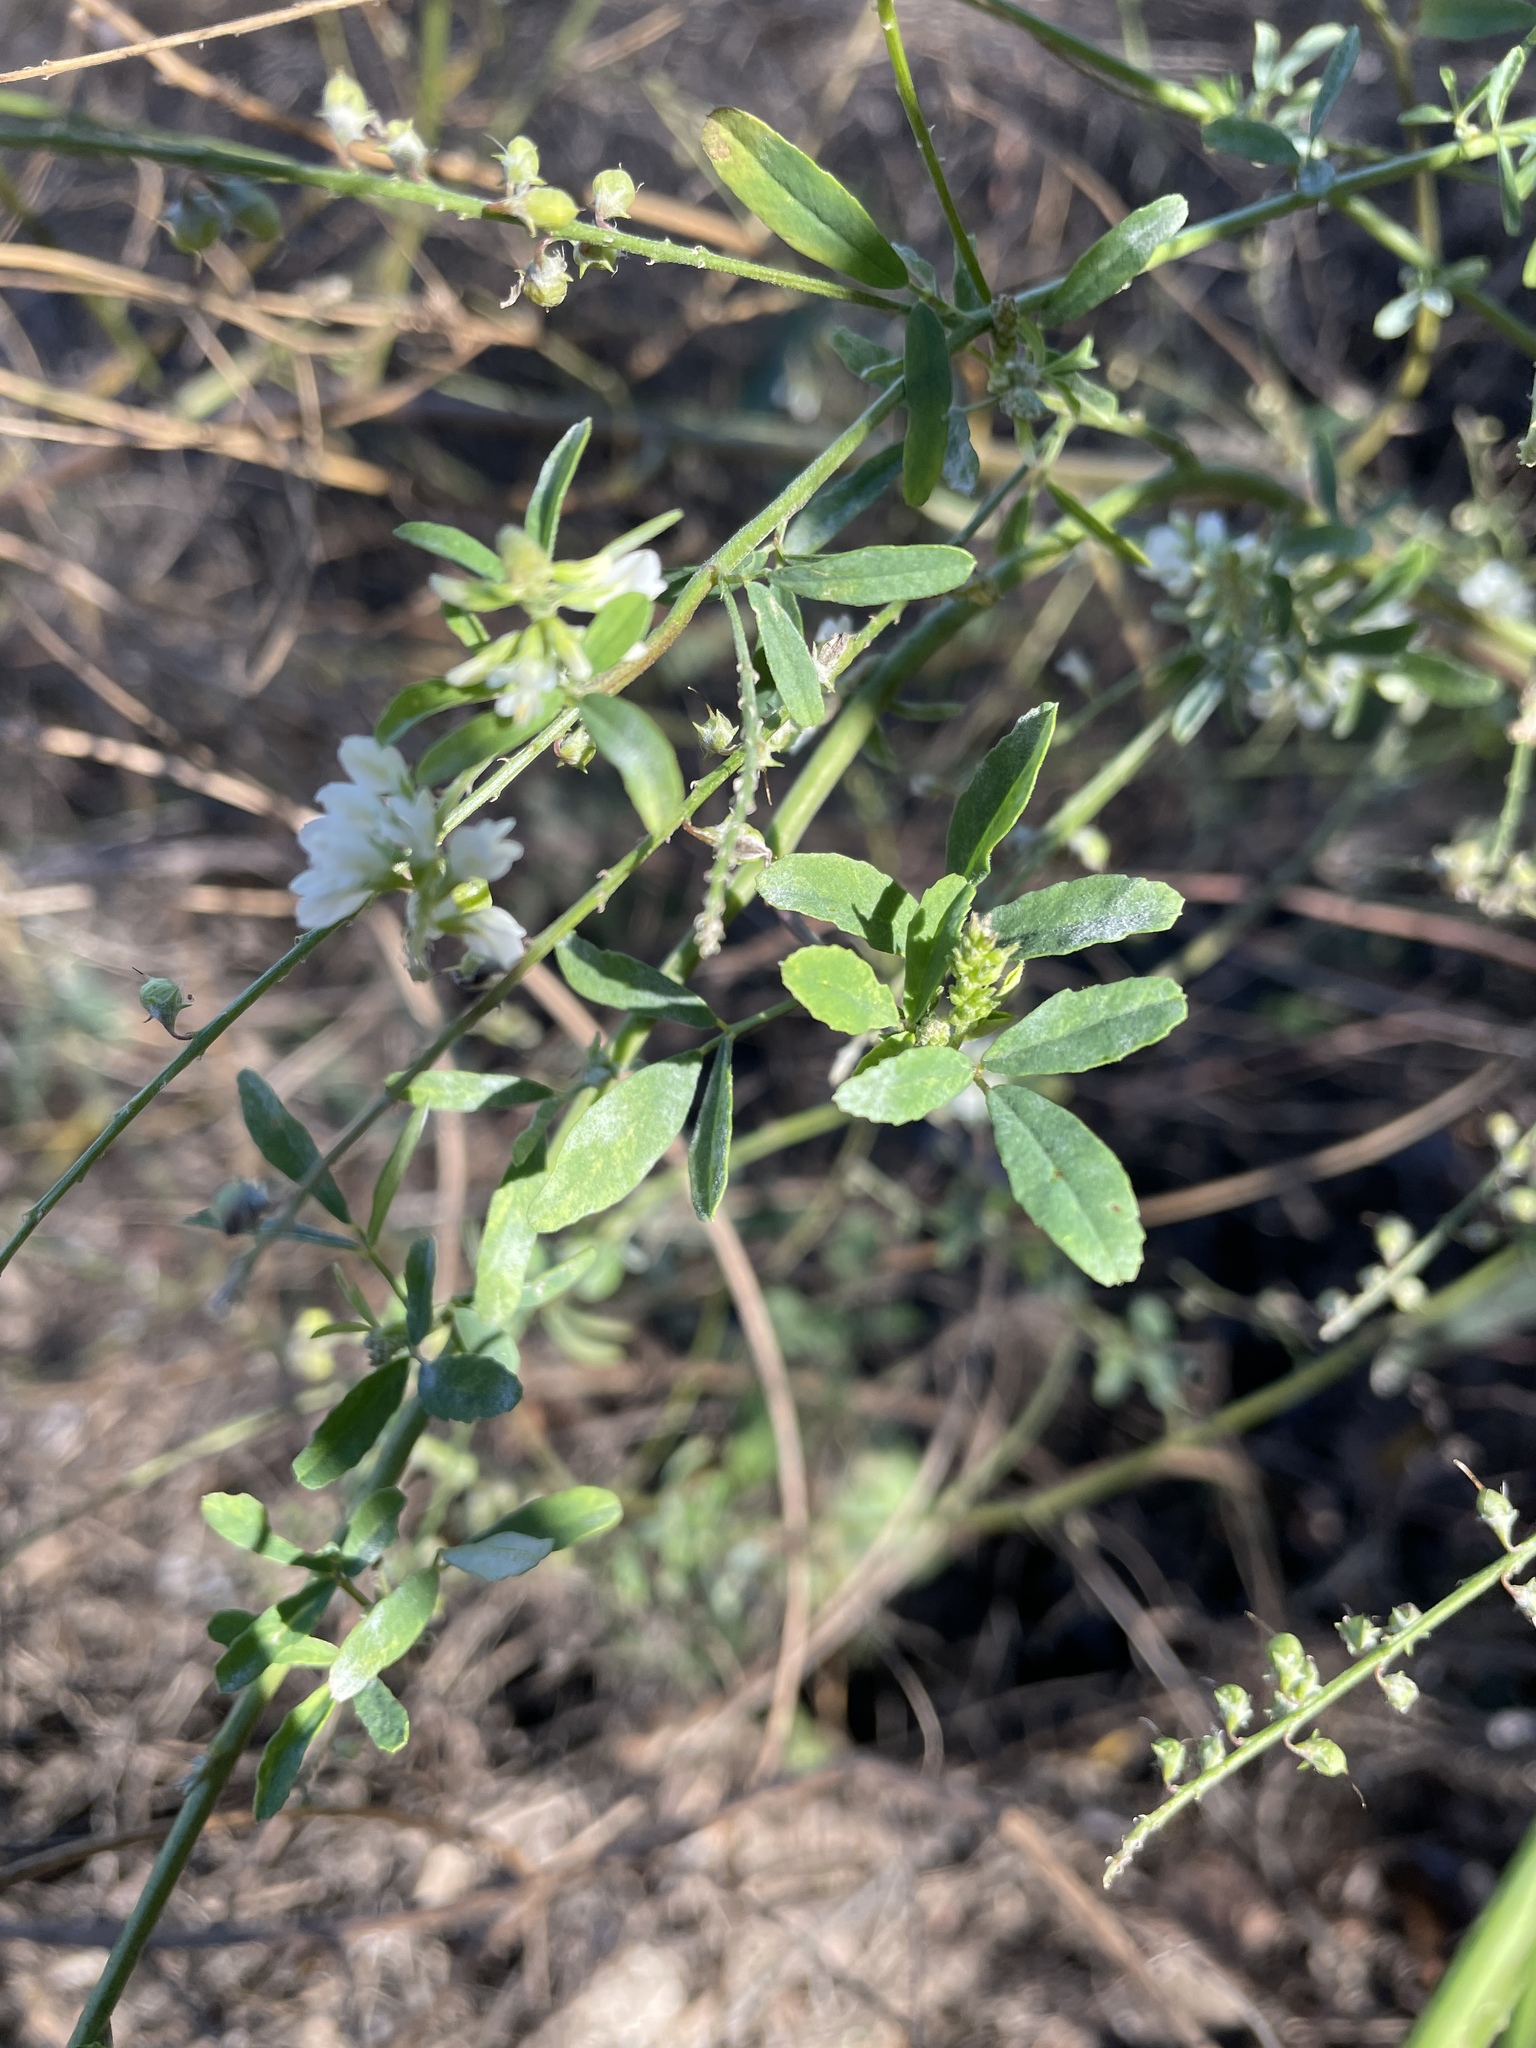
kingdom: Plantae
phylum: Tracheophyta
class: Magnoliopsida
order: Fabales
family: Fabaceae
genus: Melilotus
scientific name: Melilotus albus
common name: White melilot
